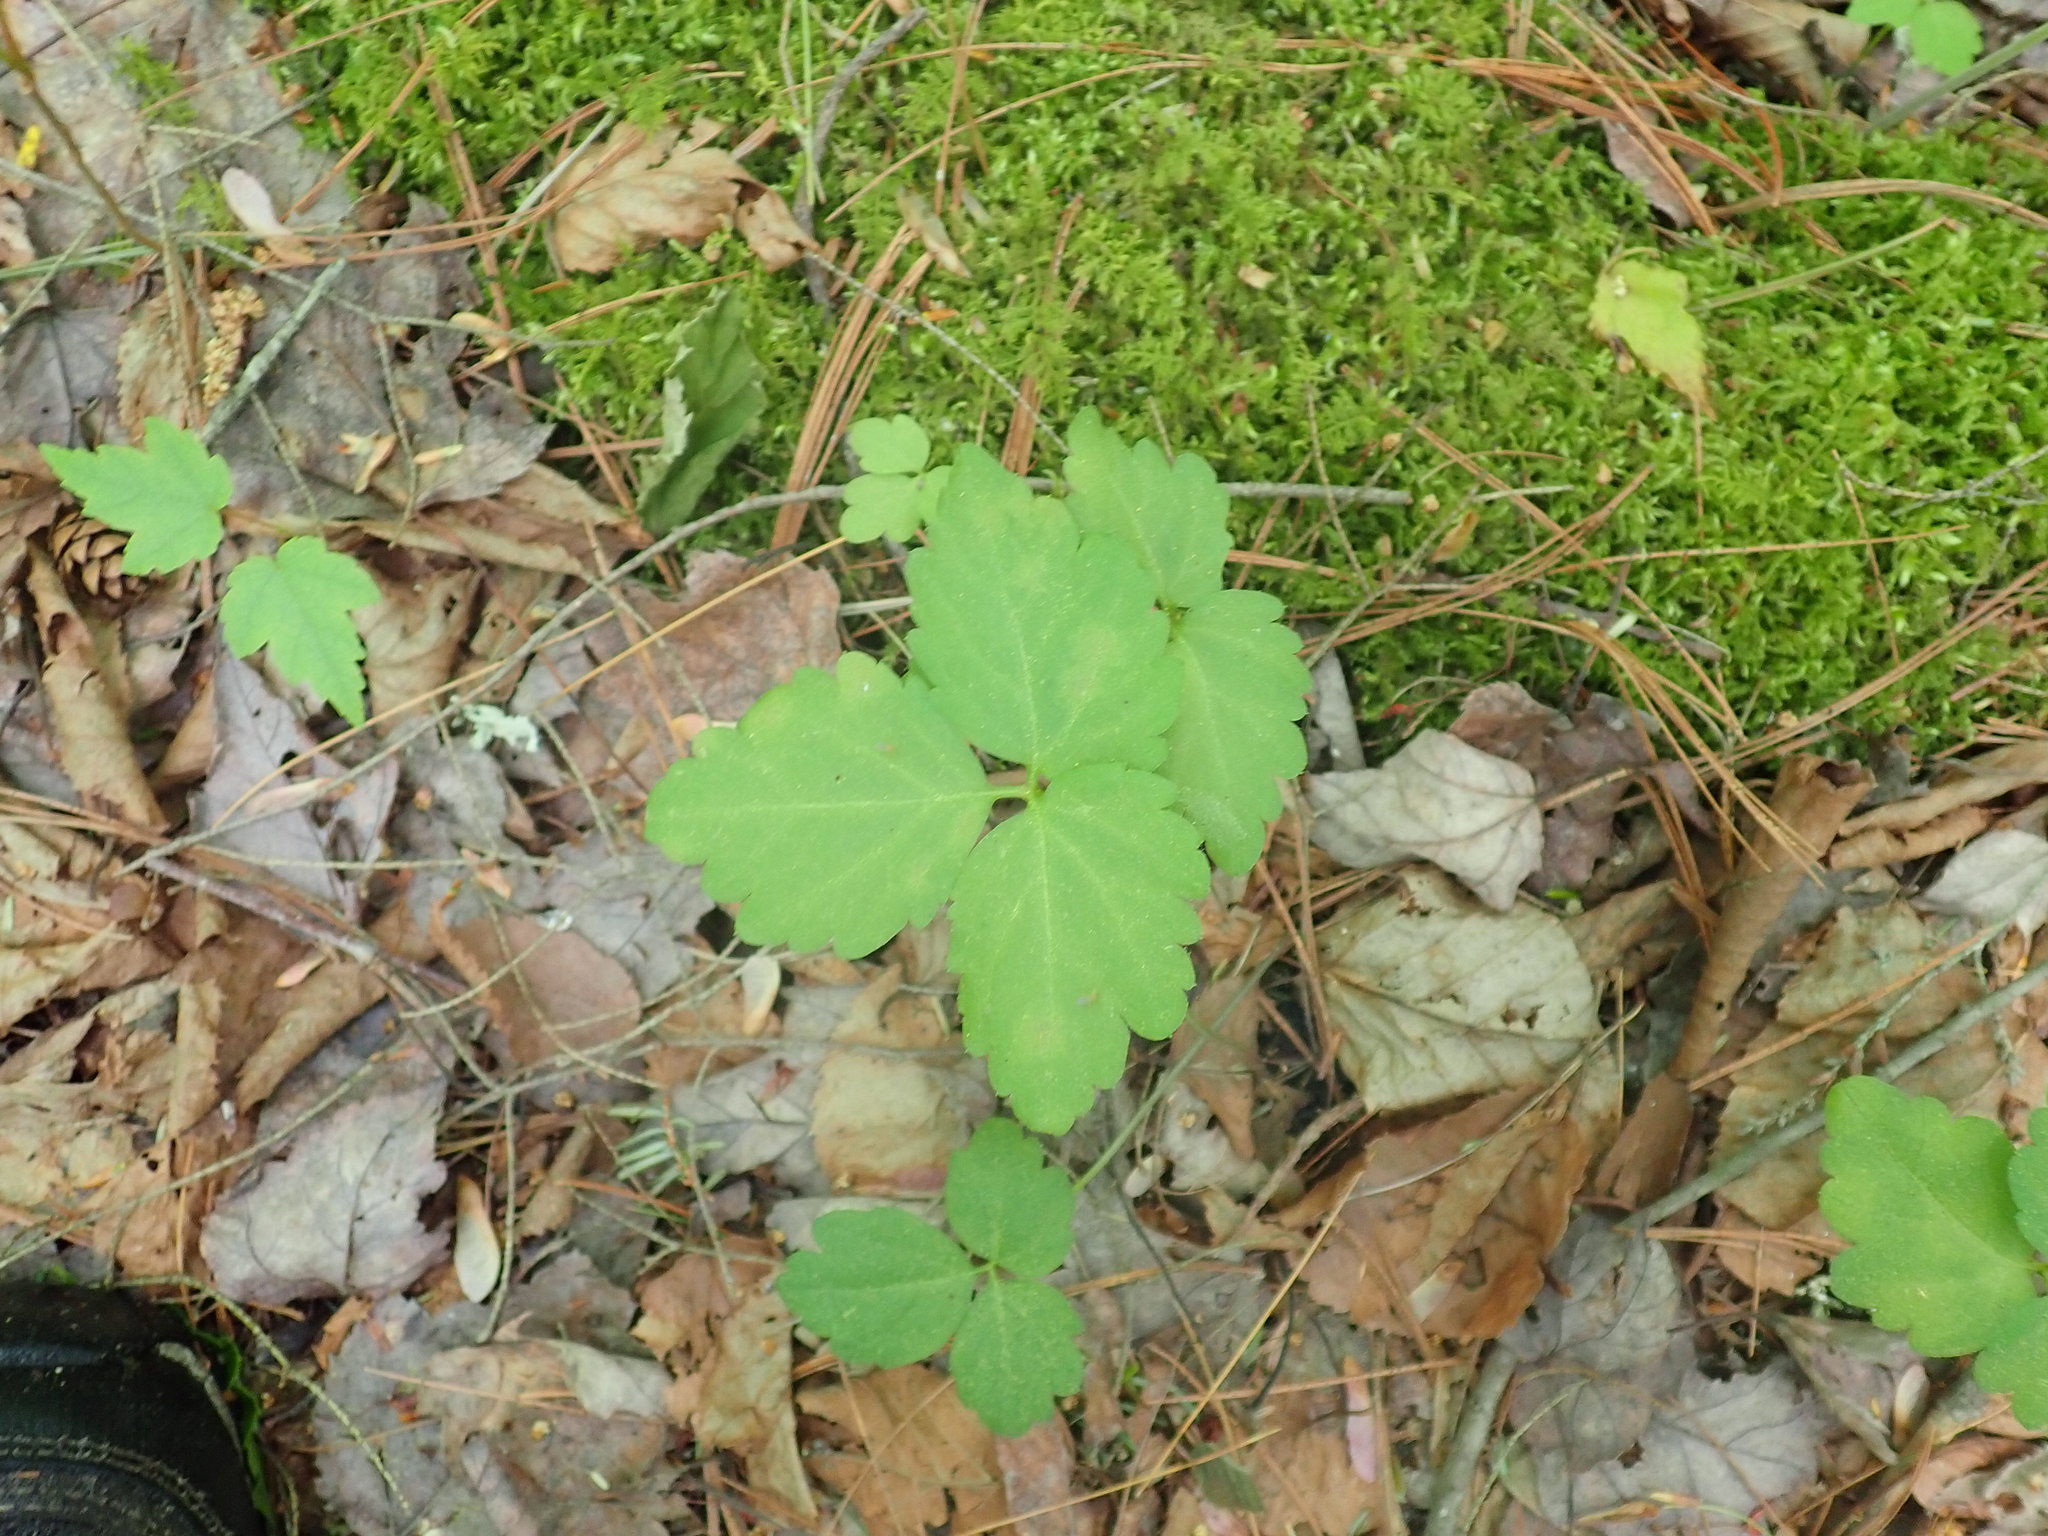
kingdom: Plantae
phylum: Tracheophyta
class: Magnoliopsida
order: Brassicales
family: Brassicaceae
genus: Cardamine
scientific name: Cardamine diphylla
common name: Broad-leaved toothwort
